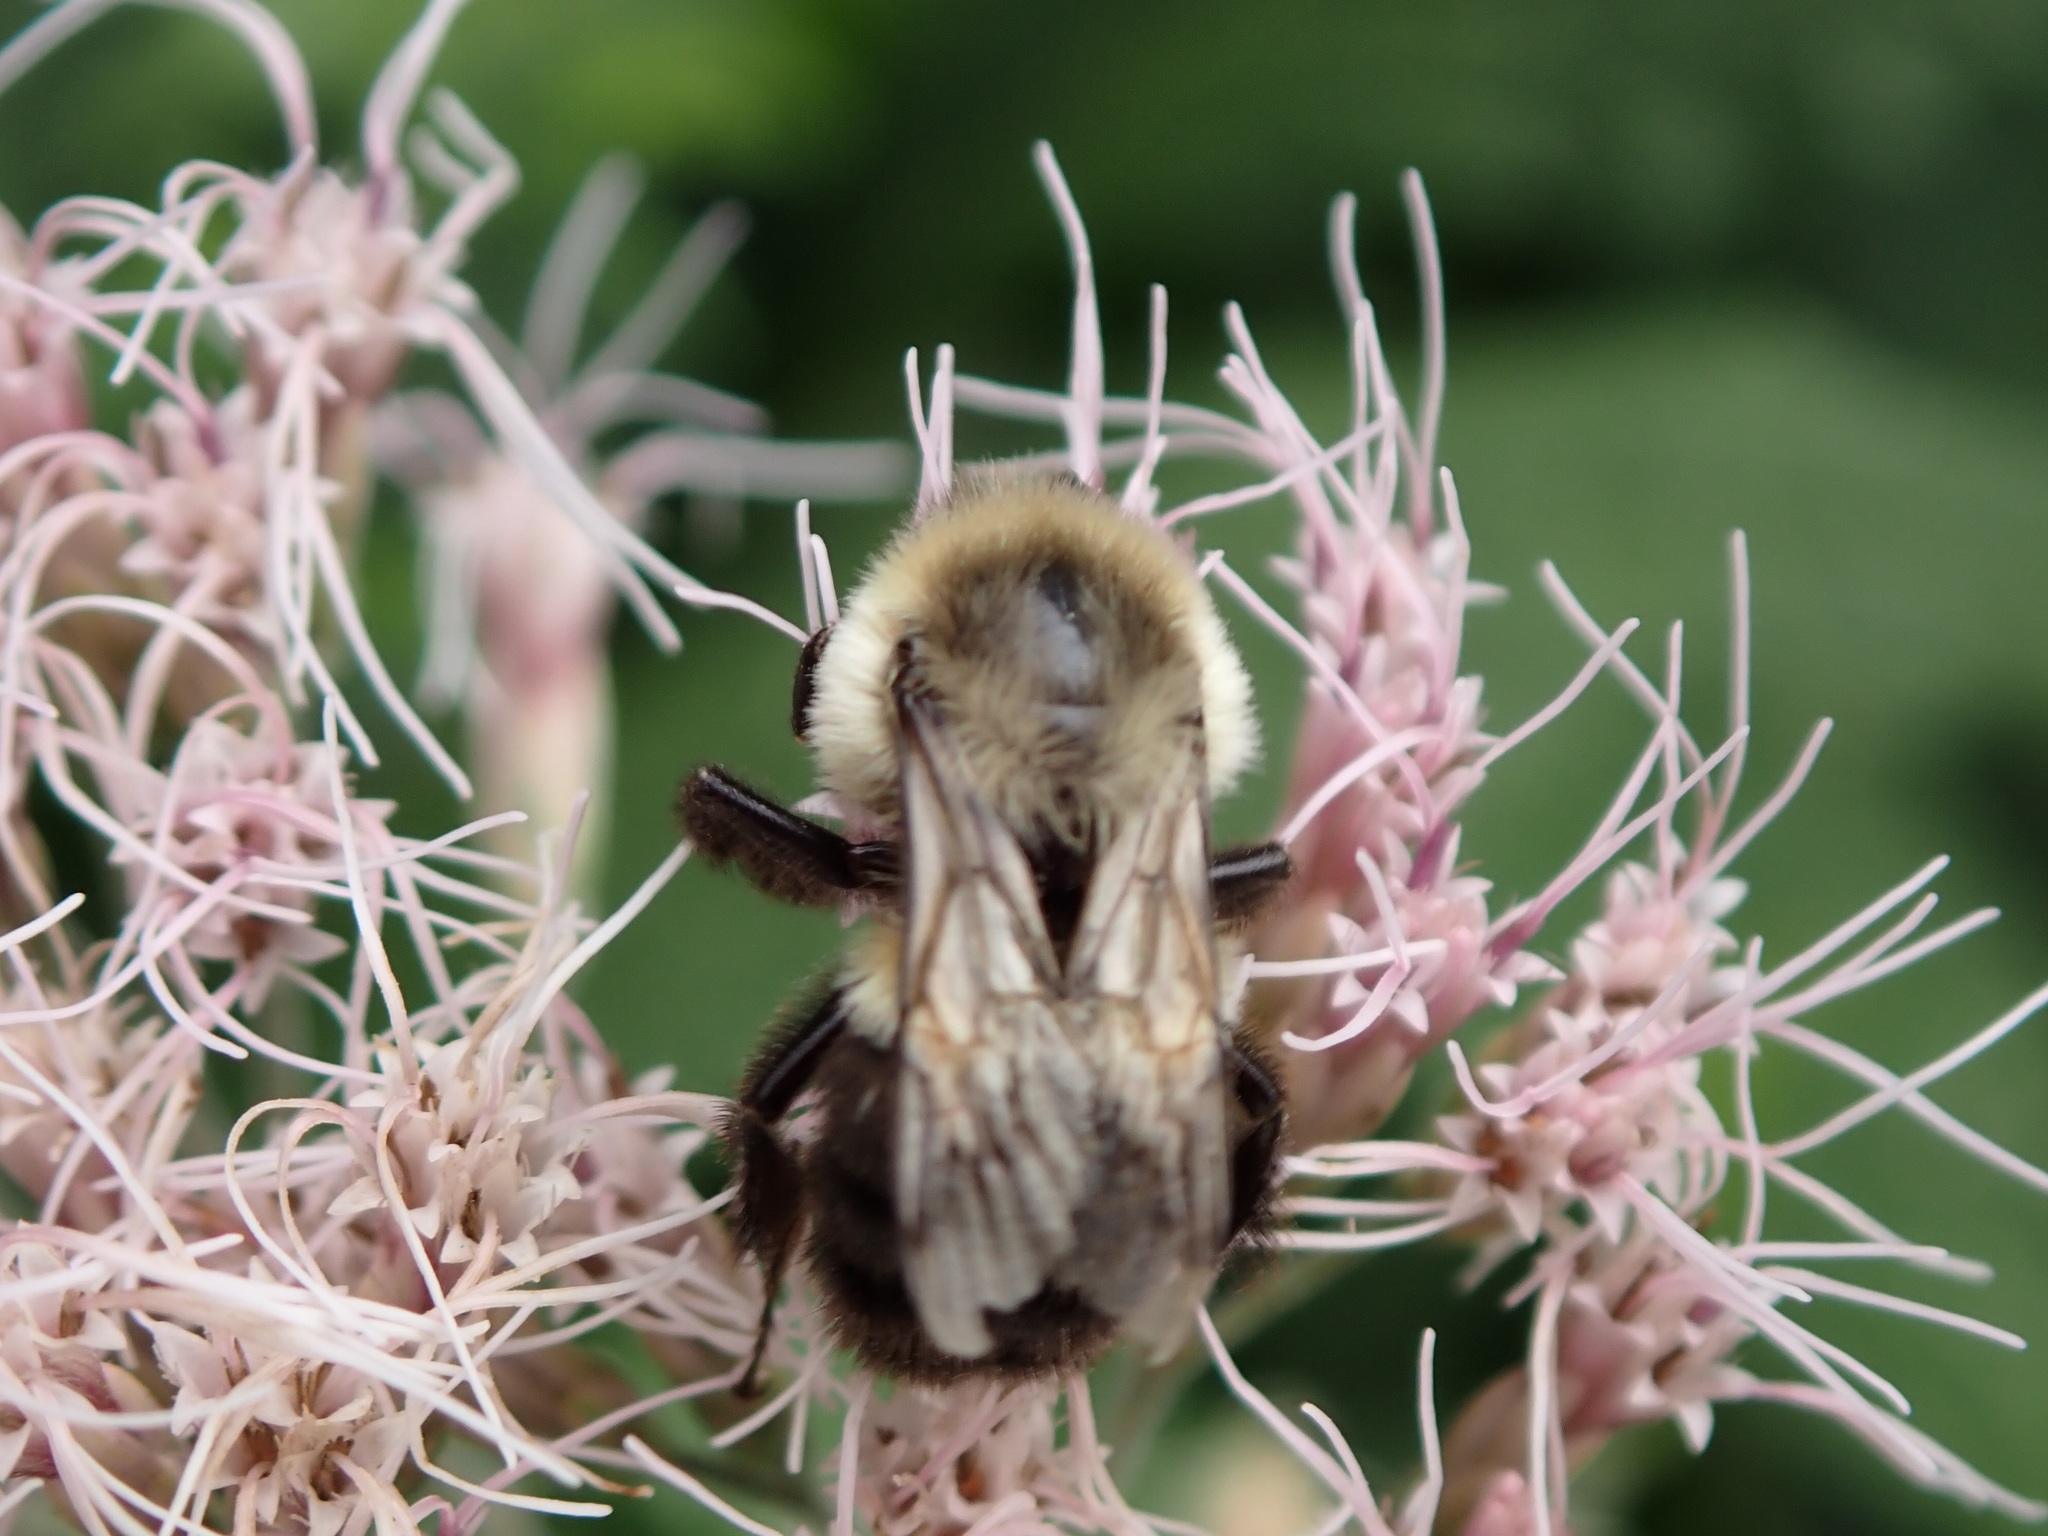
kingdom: Animalia
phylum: Arthropoda
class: Insecta
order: Hymenoptera
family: Apidae
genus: Bombus
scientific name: Bombus impatiens
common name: Common eastern bumble bee
